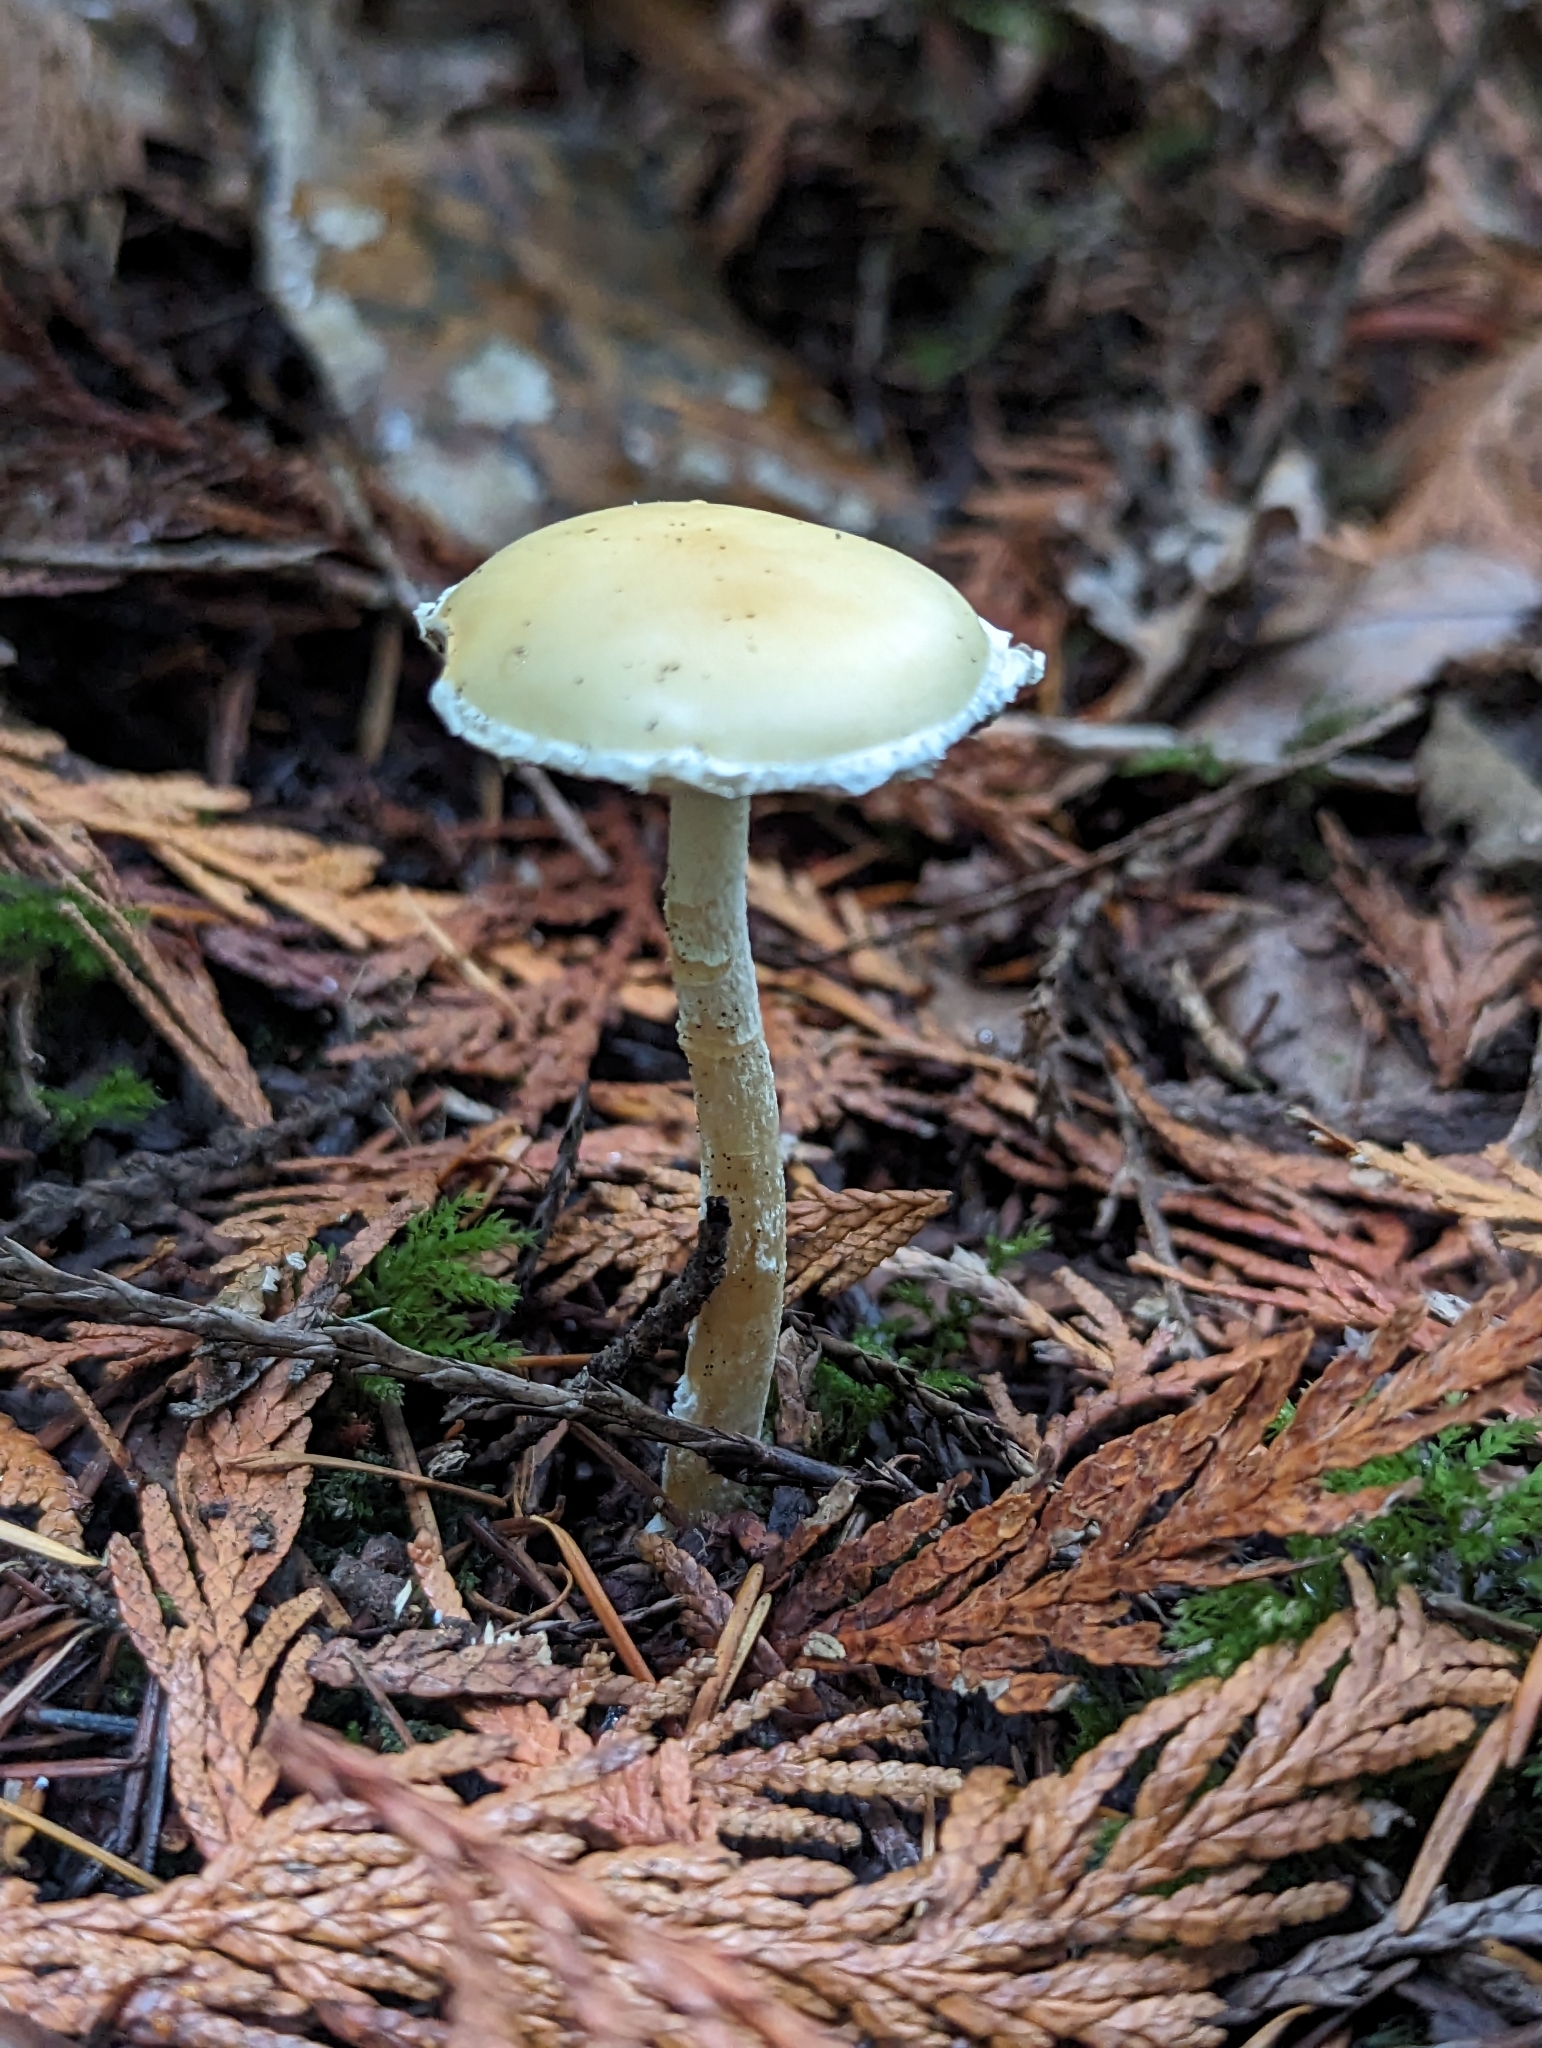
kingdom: Fungi
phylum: Basidiomycota
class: Agaricomycetes
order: Agaricales
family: Strophariaceae
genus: Stropharia
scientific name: Stropharia ambigua
